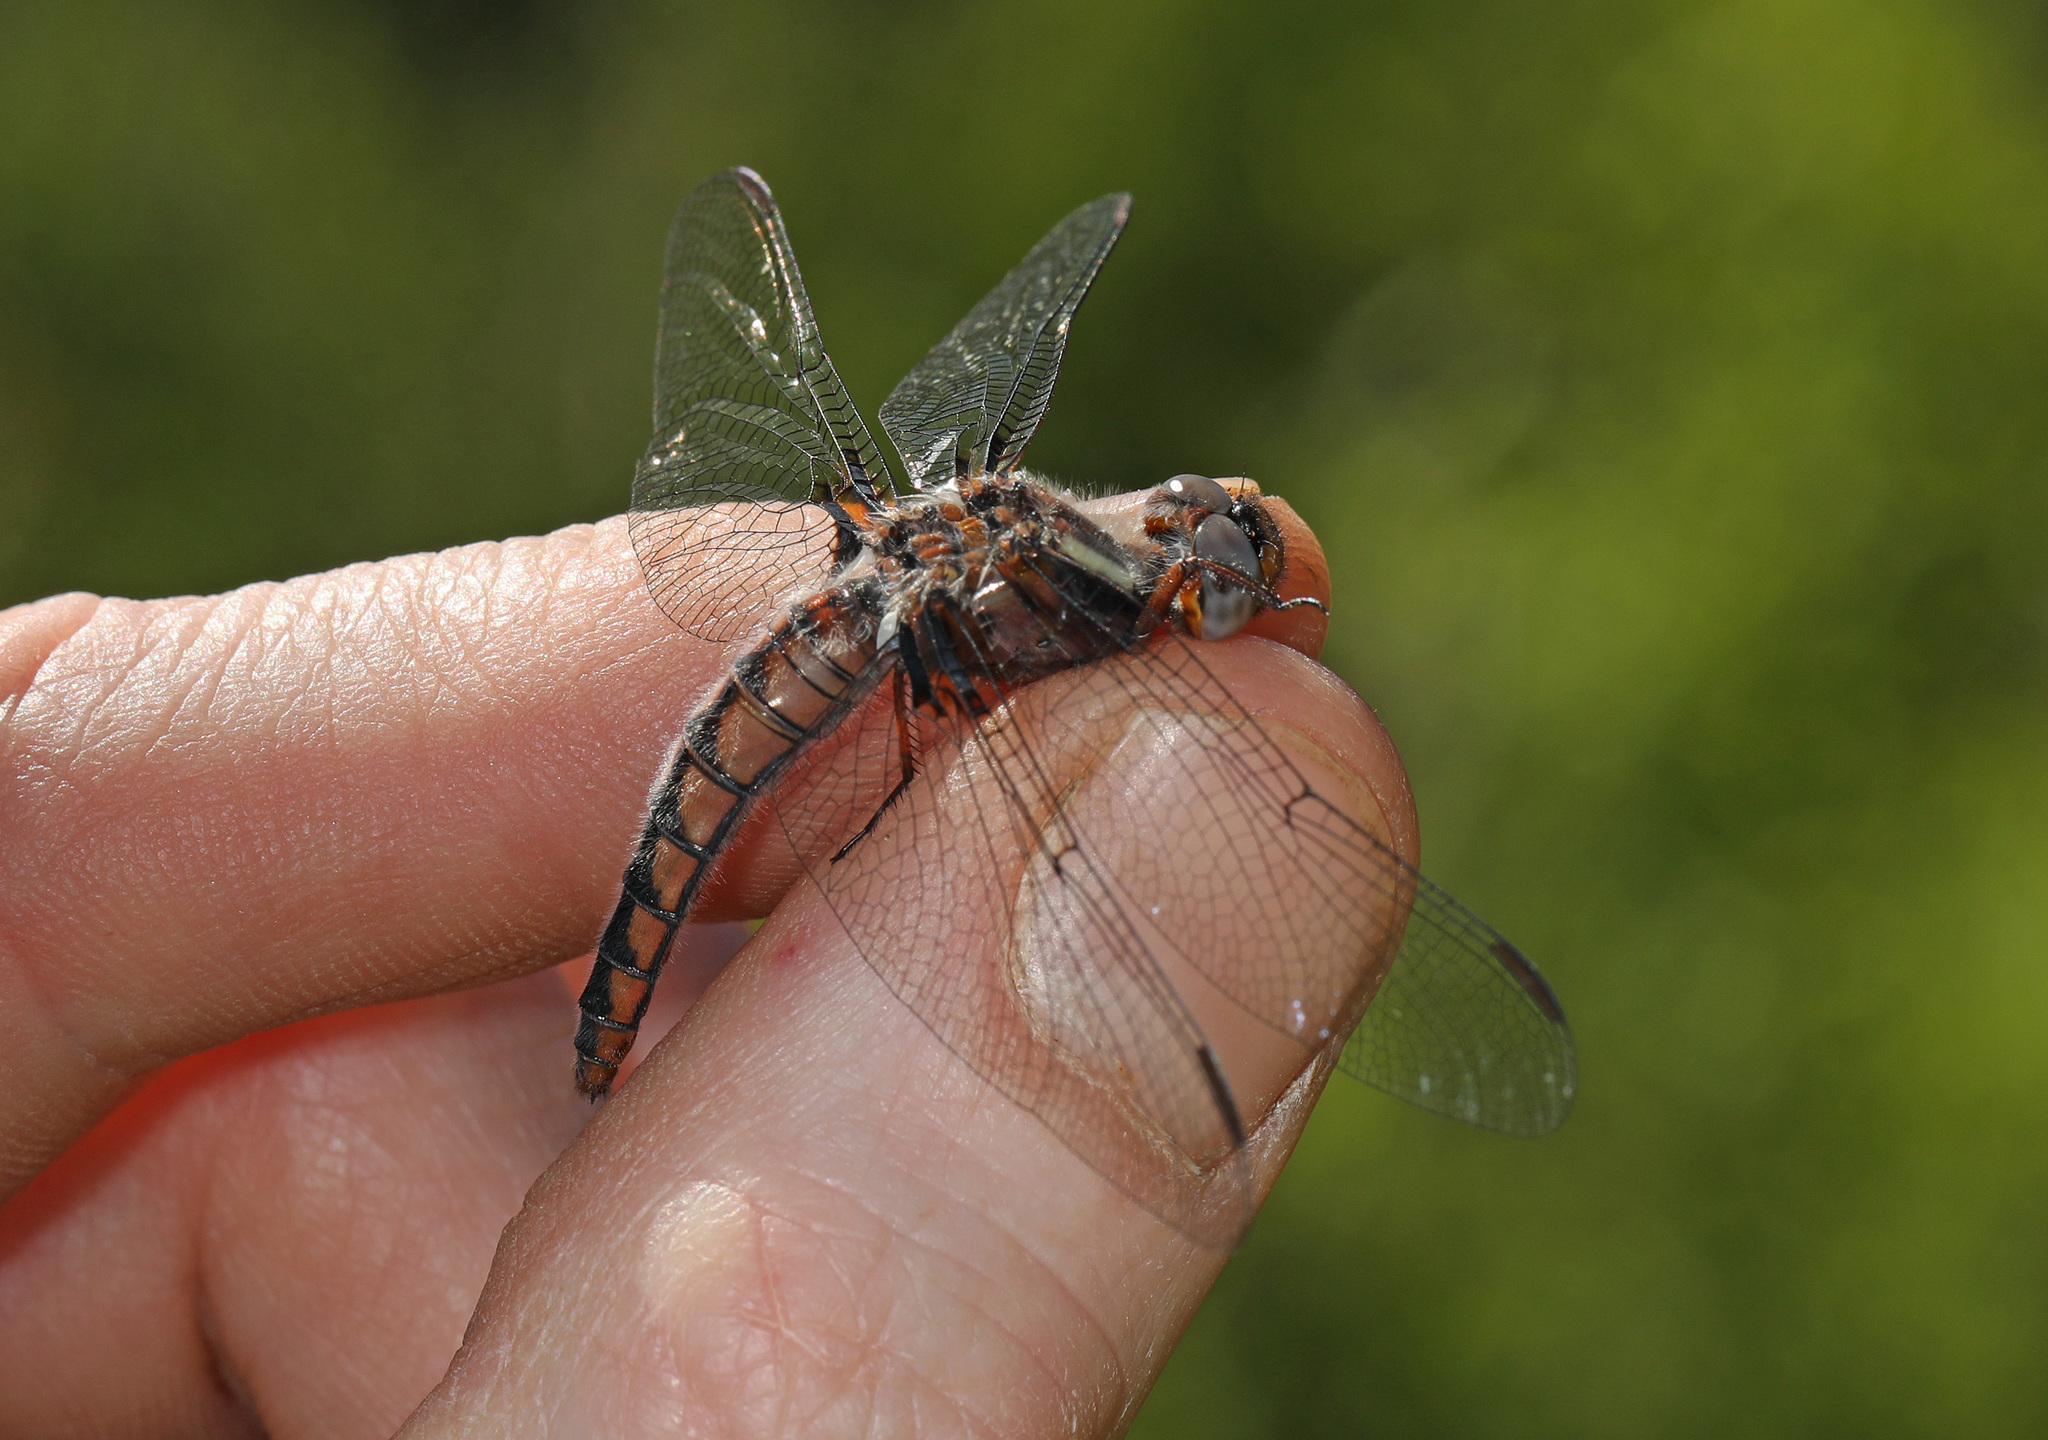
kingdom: Animalia
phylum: Arthropoda
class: Insecta
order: Odonata
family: Libellulidae
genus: Ladona
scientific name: Ladona deplanata
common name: Blue corporal
